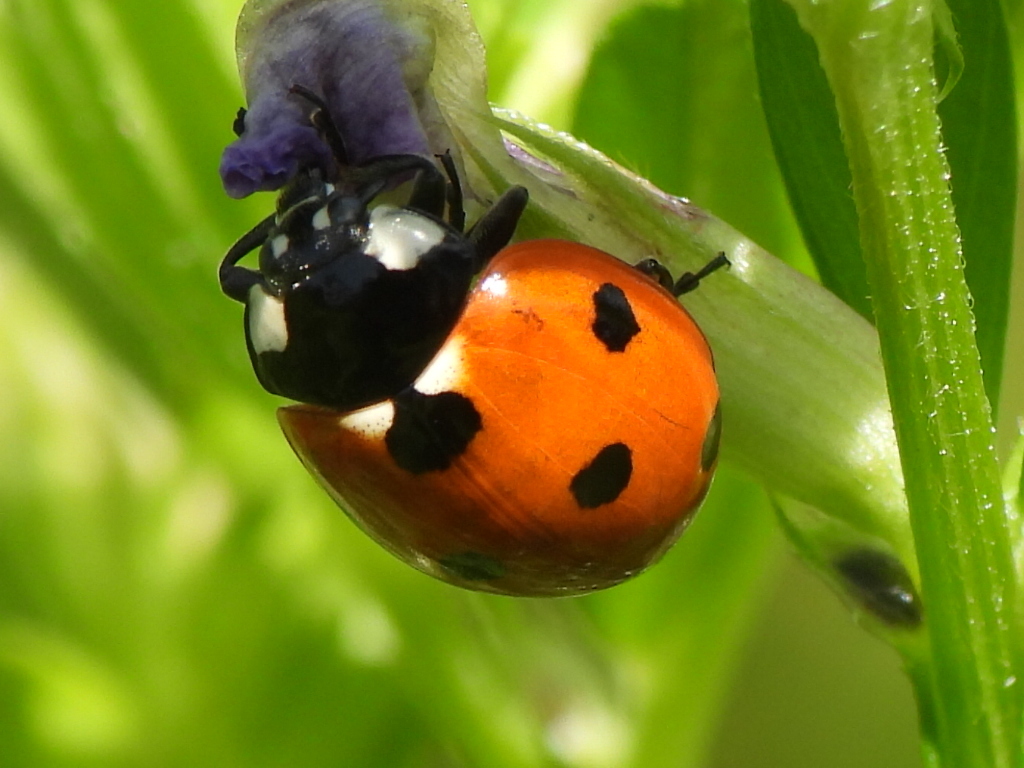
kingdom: Animalia
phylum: Arthropoda
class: Insecta
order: Coleoptera
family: Coccinellidae
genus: Coccinella
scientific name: Coccinella septempunctata
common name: Sevenspotted lady beetle
